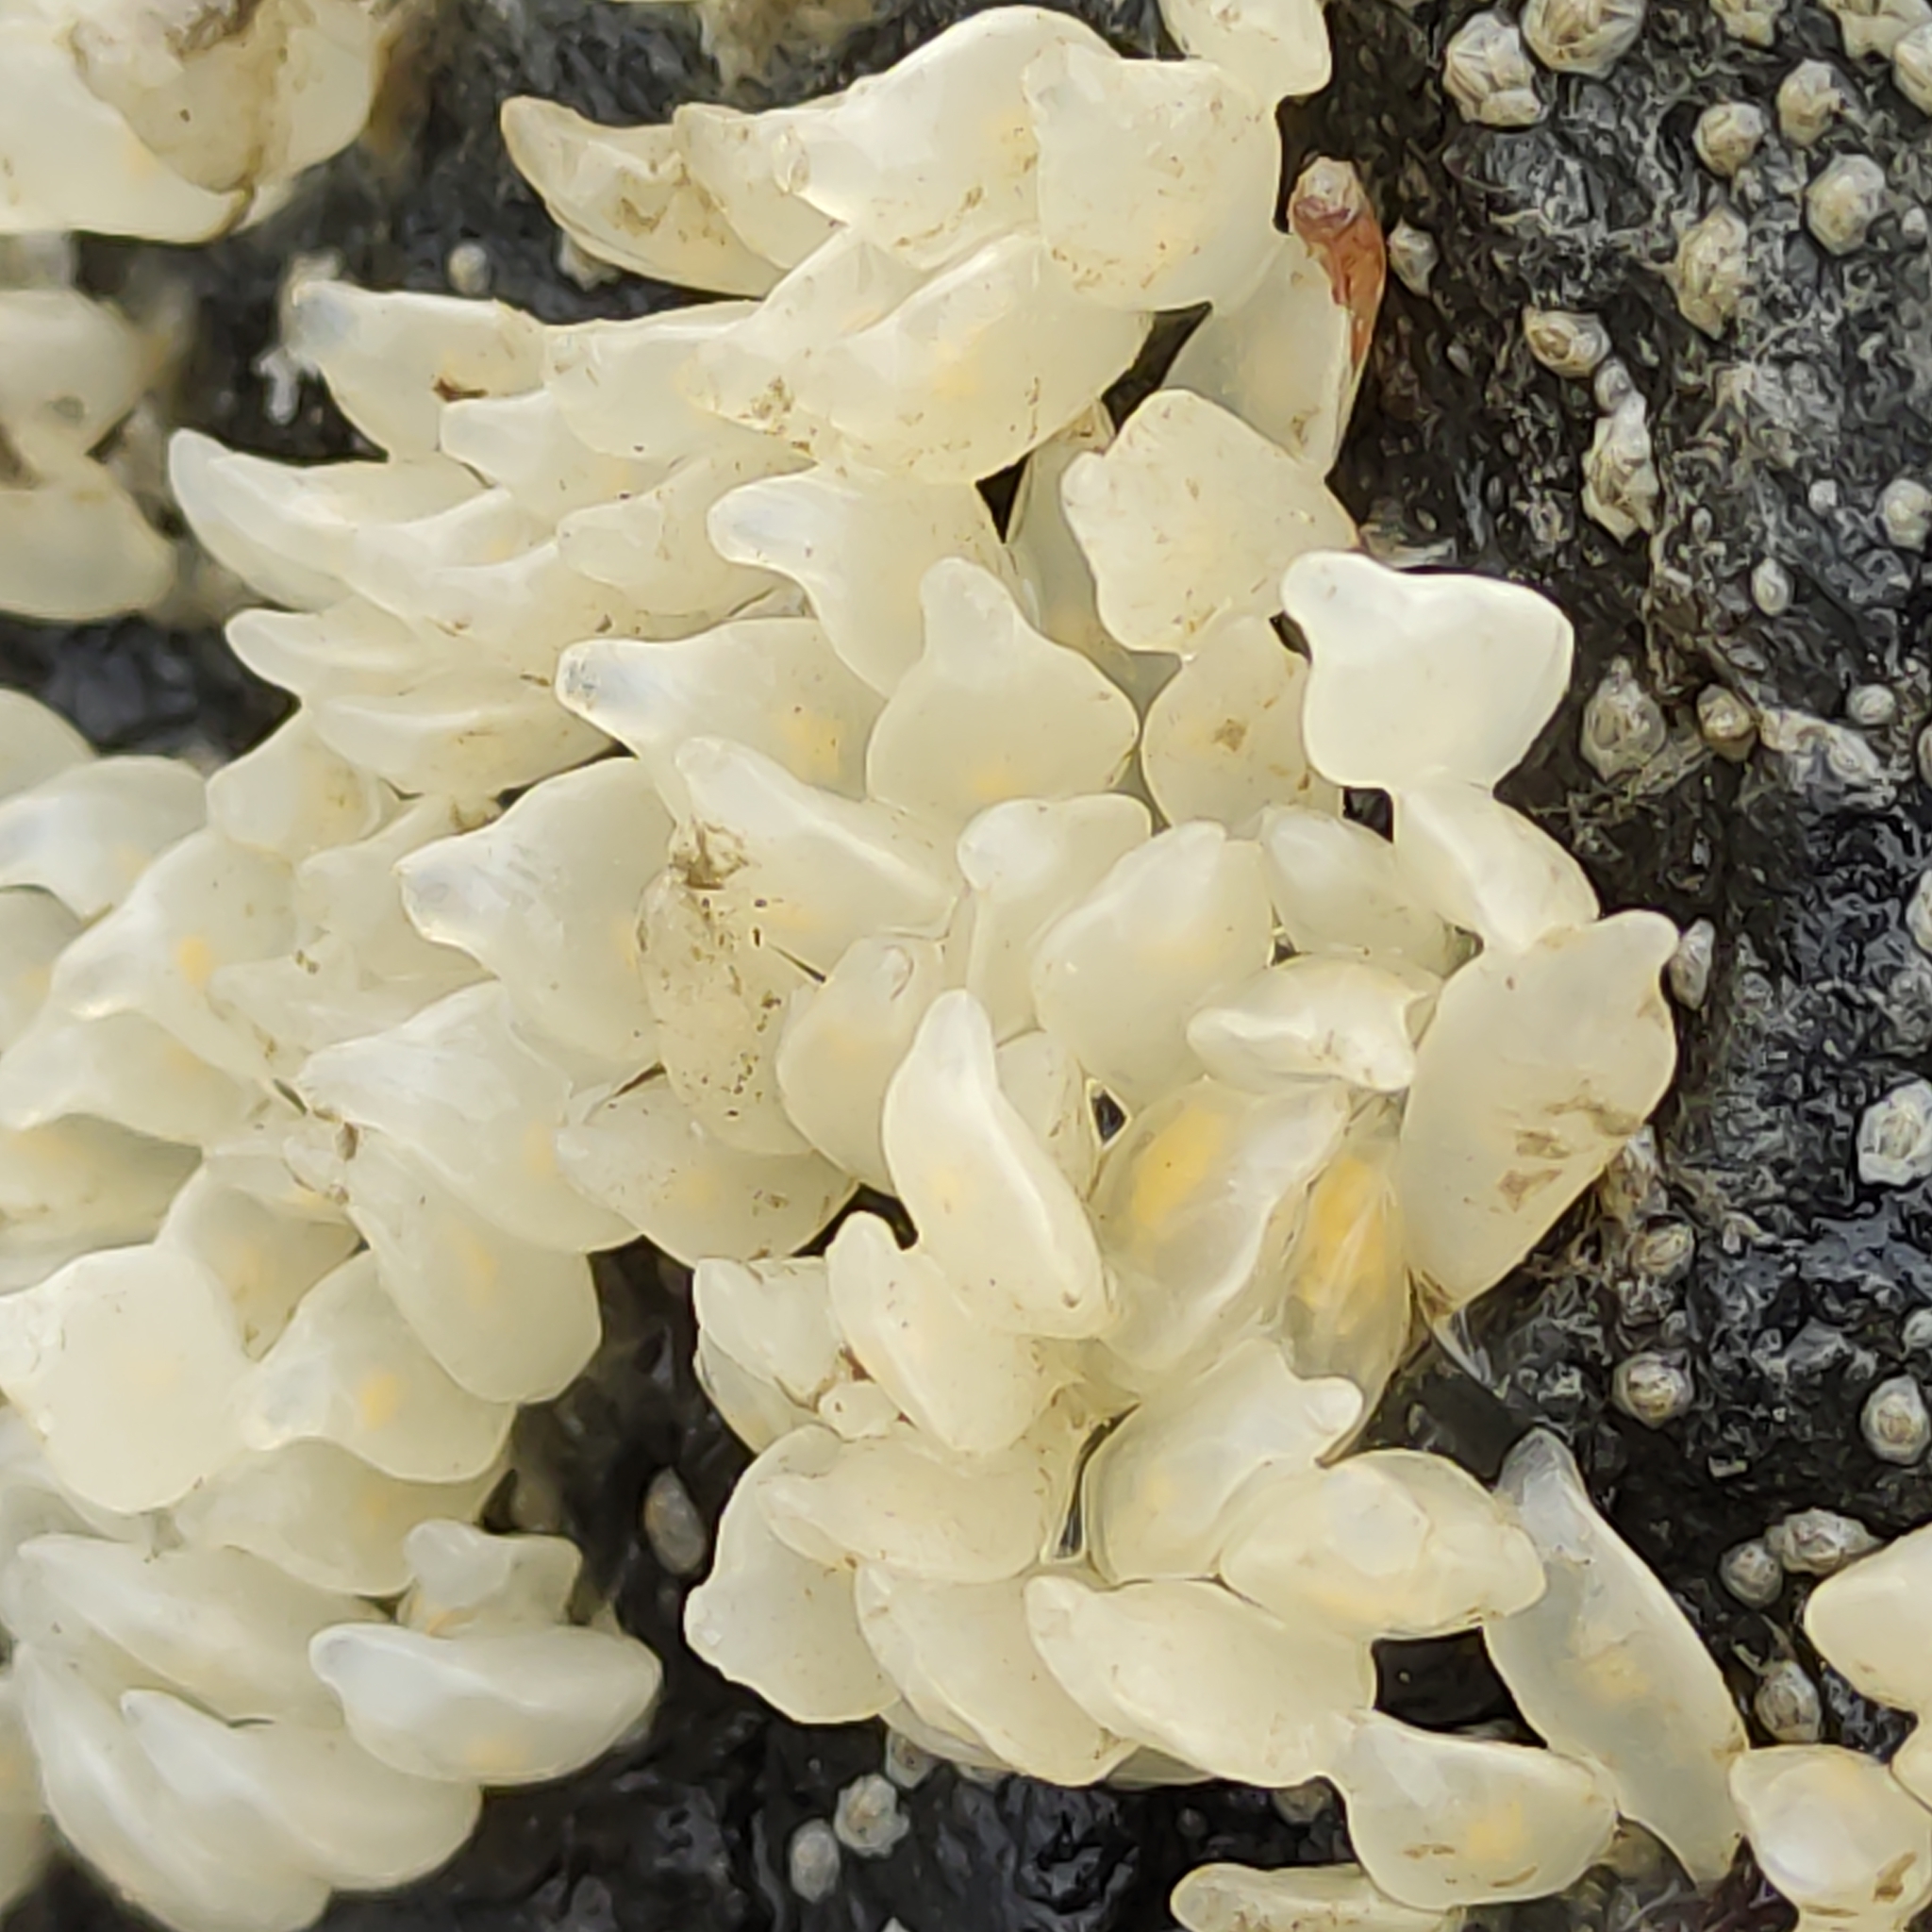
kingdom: Animalia
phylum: Mollusca
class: Gastropoda
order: Neogastropoda
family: Cominellidae
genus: Cominella
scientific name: Cominella maculosa
